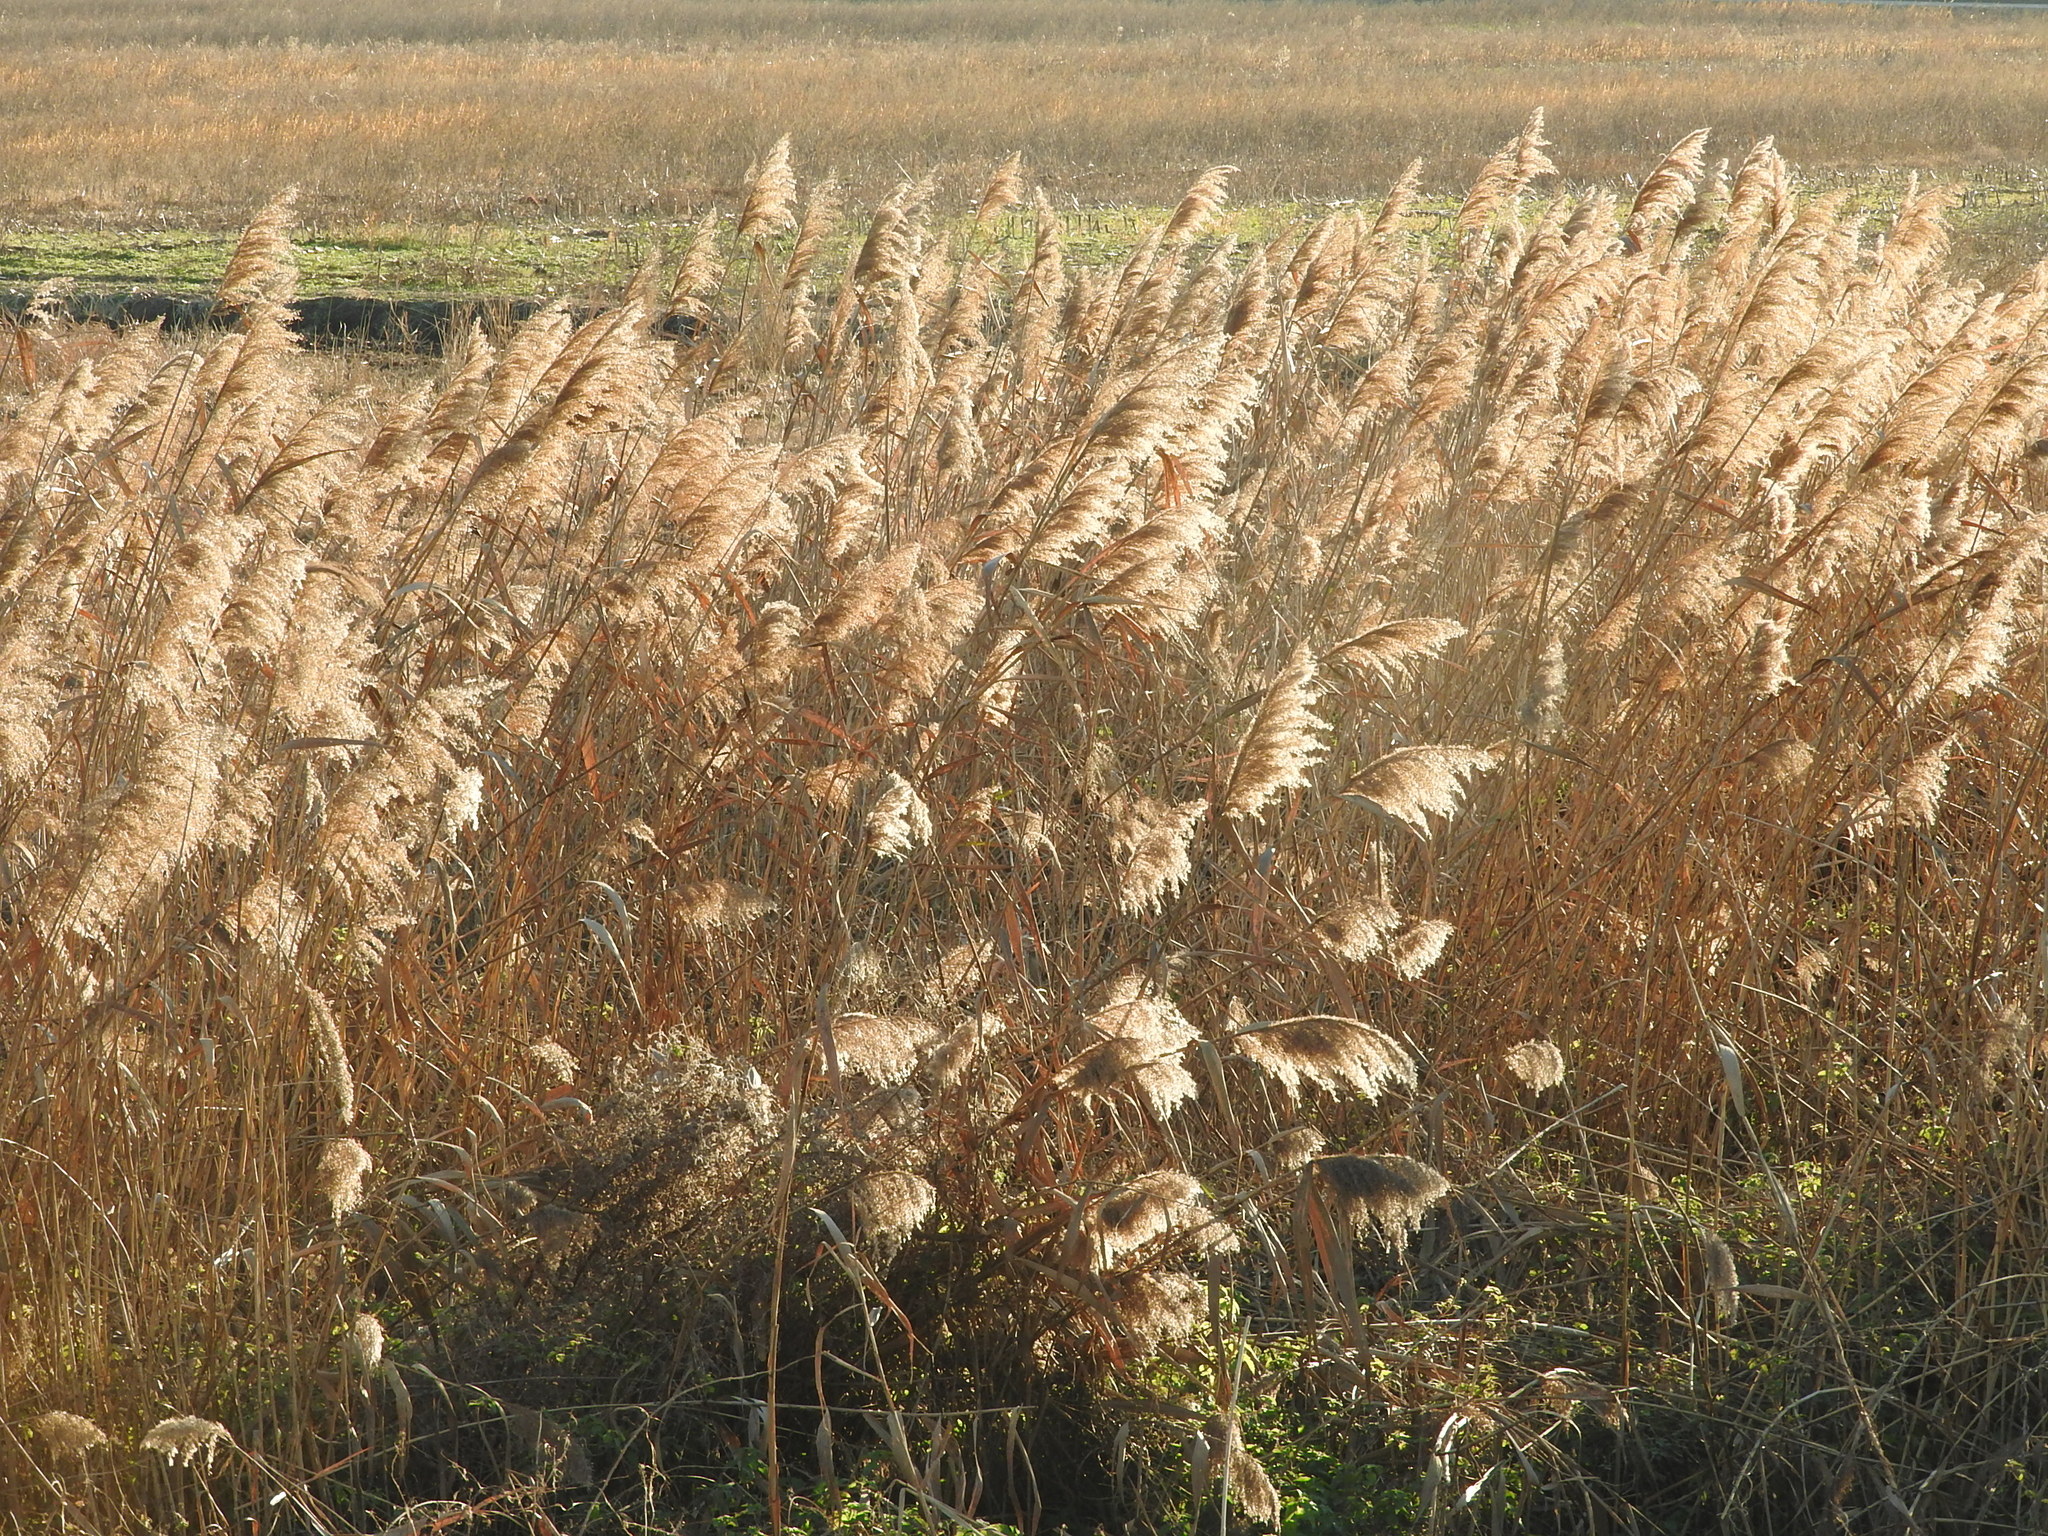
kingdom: Plantae
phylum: Tracheophyta
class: Liliopsida
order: Poales
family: Poaceae
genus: Phragmites
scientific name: Phragmites australis
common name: Common reed
